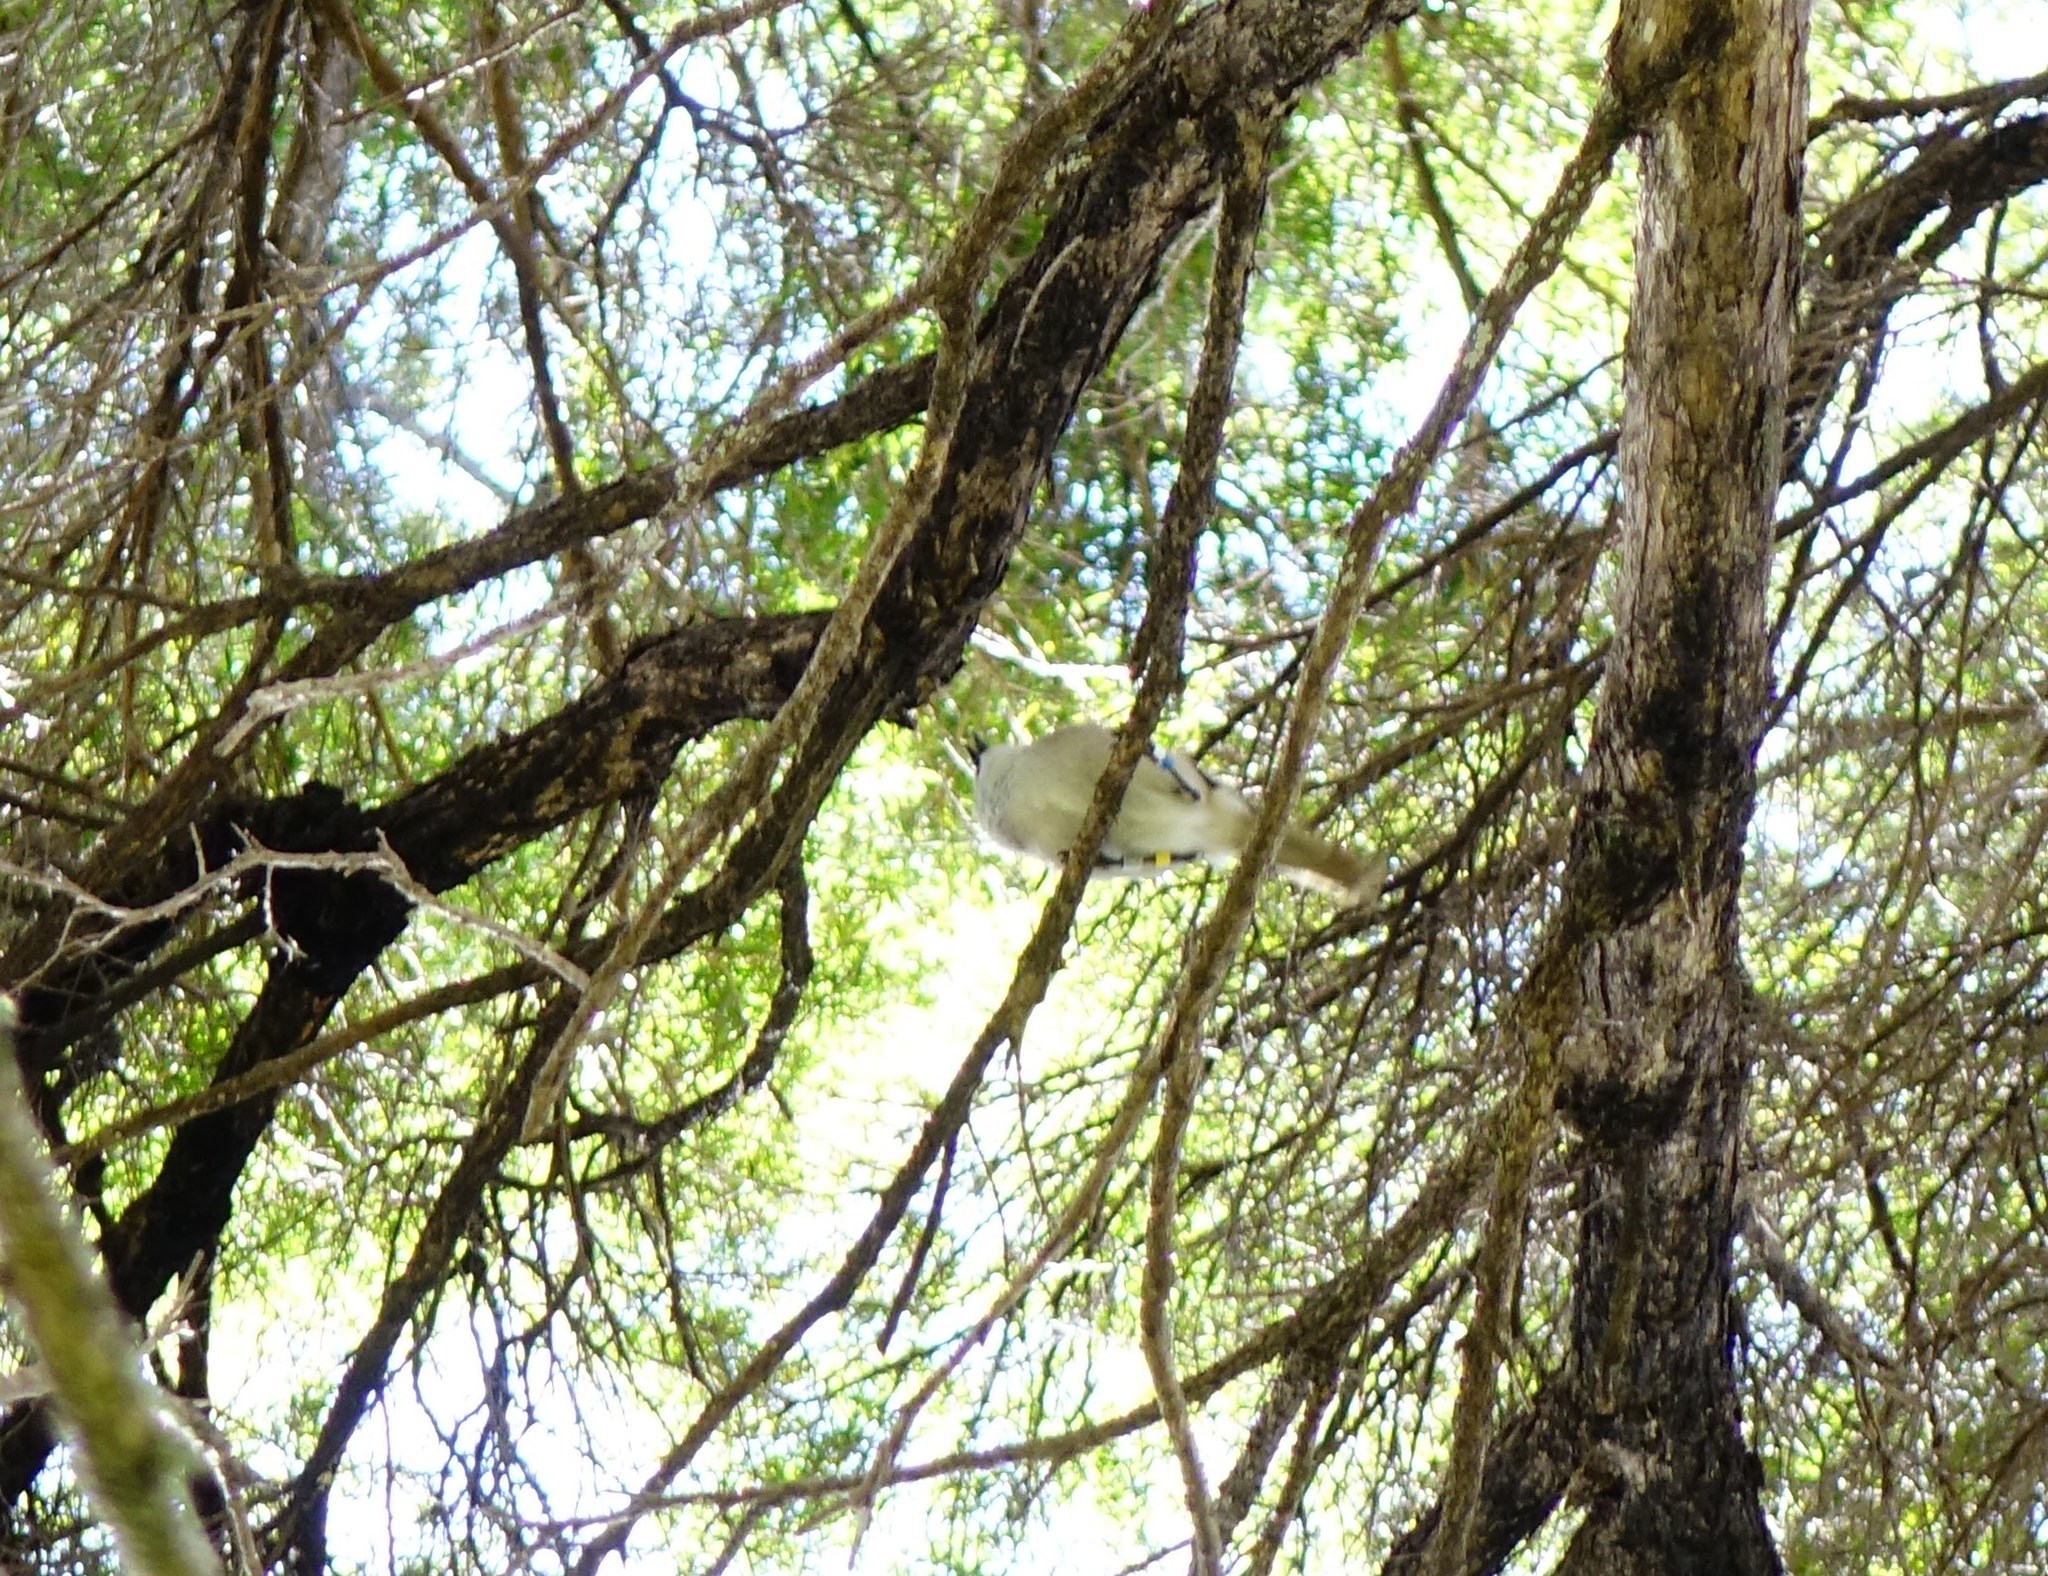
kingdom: Animalia
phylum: Chordata
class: Aves
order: Passeriformes
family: Acanthizidae
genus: Mohoua
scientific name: Mohoua albicilla
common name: Whitehead
